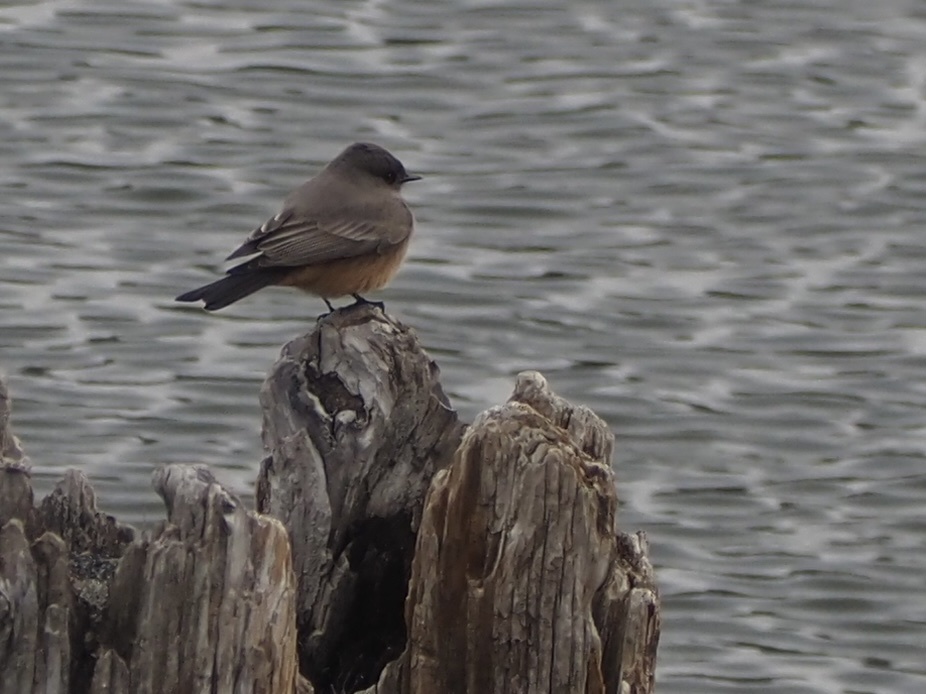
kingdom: Animalia
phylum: Chordata
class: Aves
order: Passeriformes
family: Tyrannidae
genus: Sayornis
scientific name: Sayornis saya
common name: Say's phoebe
